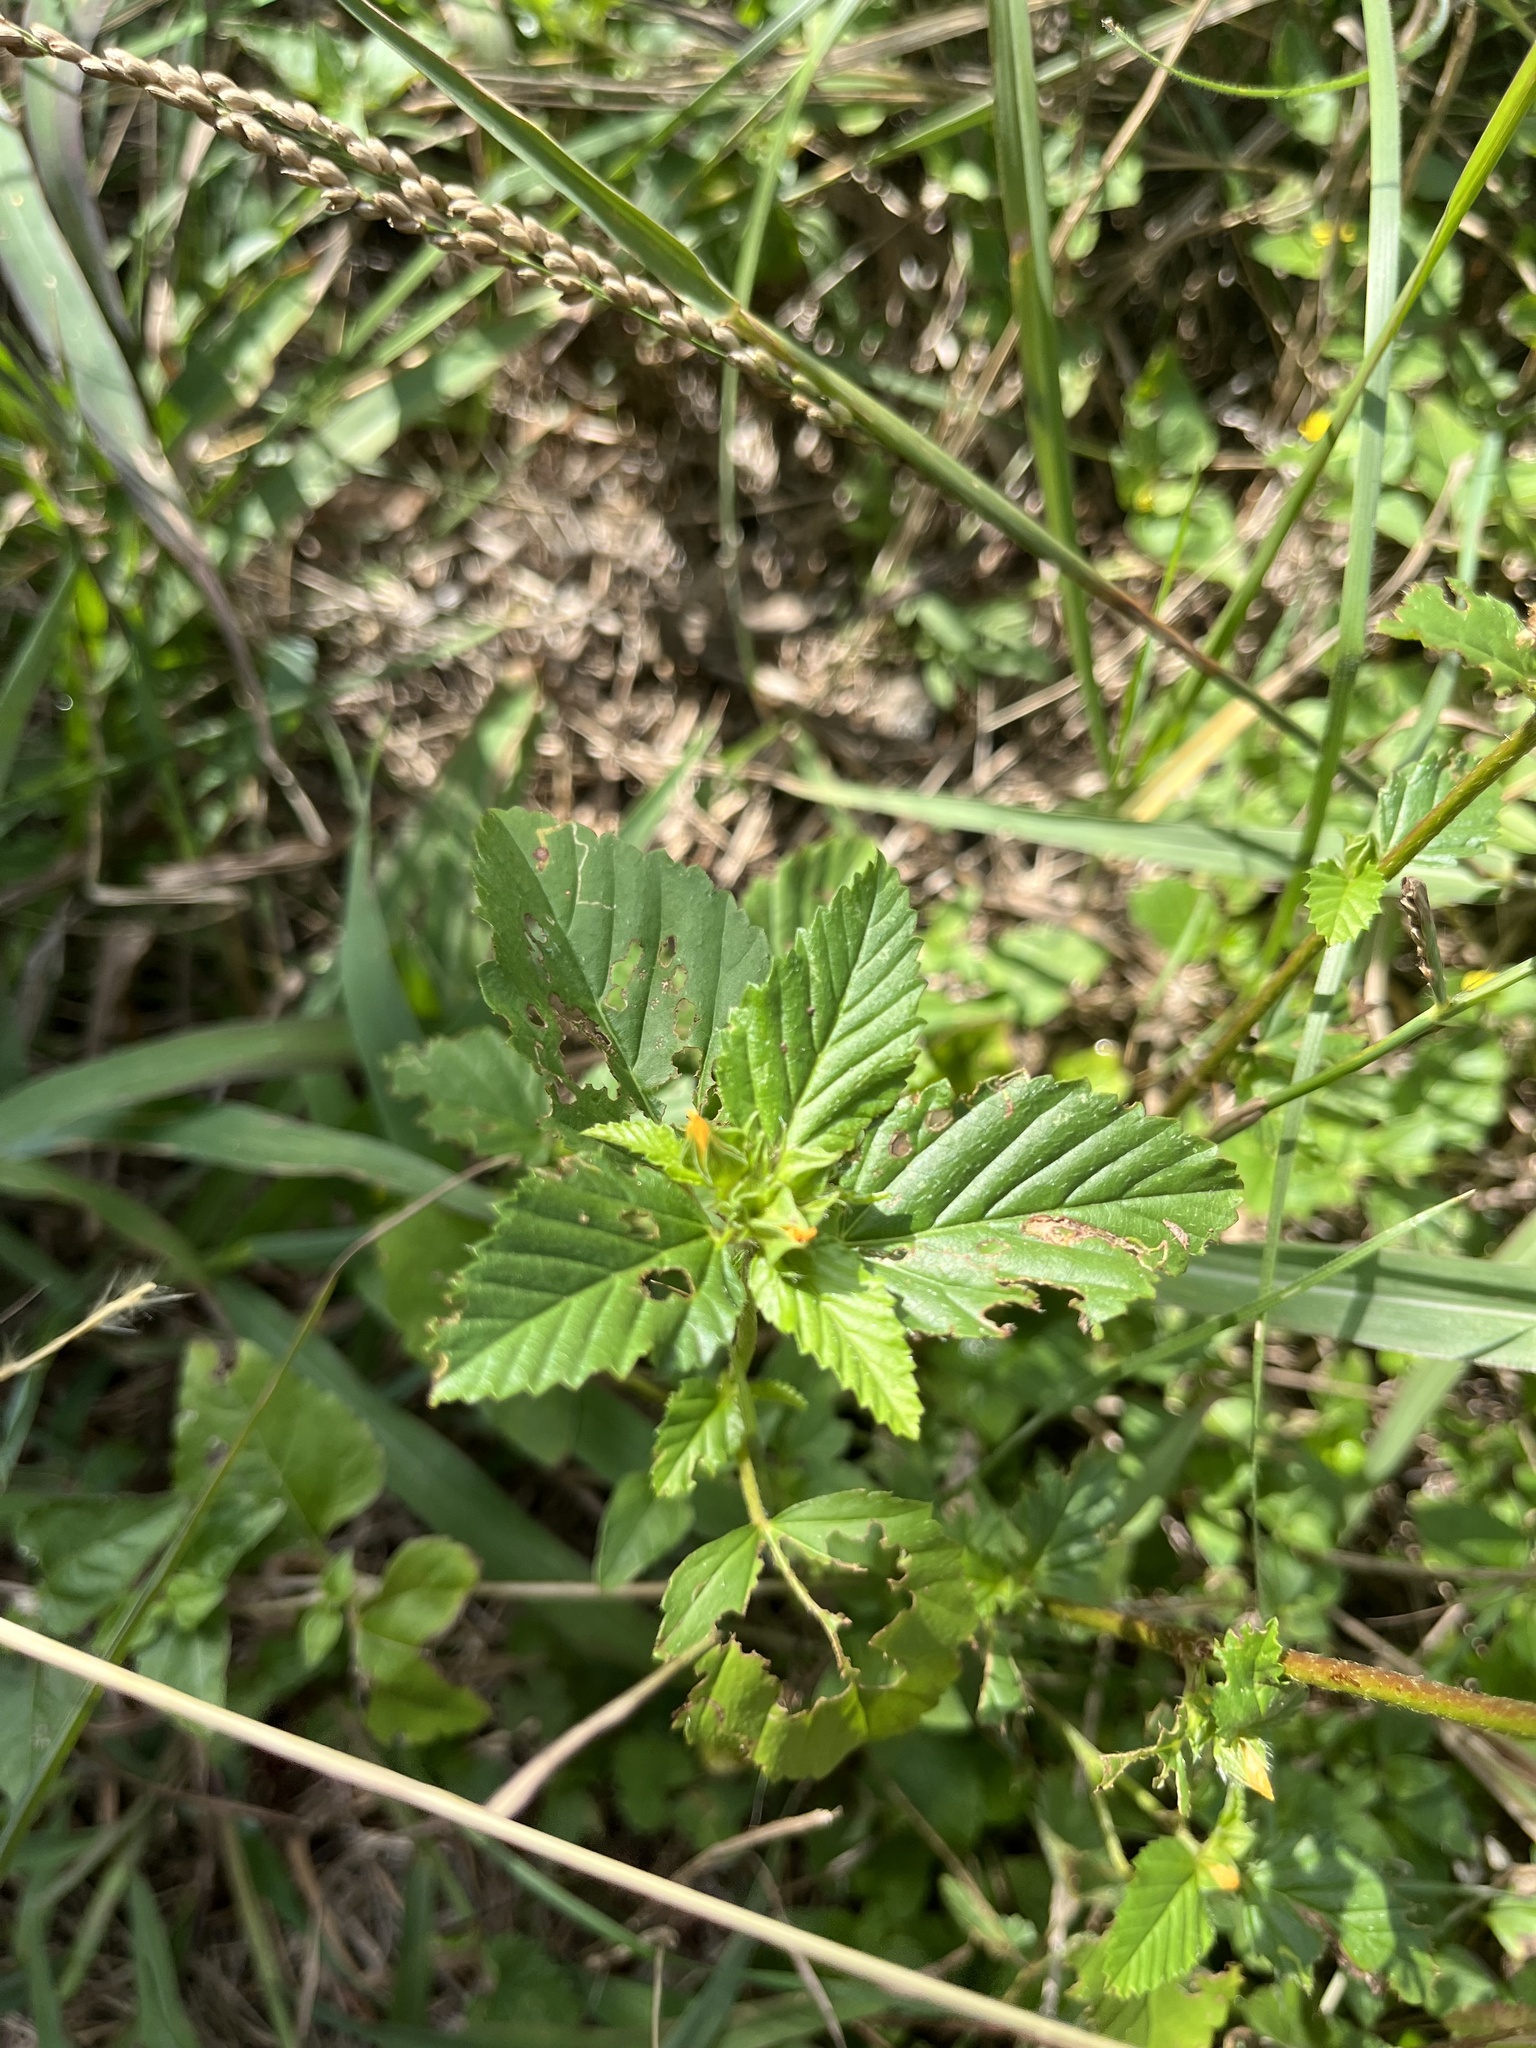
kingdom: Plantae
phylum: Tracheophyta
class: Magnoliopsida
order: Malvales
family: Malvaceae
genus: Malvastrum
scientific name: Malvastrum coromandelianum
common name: Threelobe false mallow
